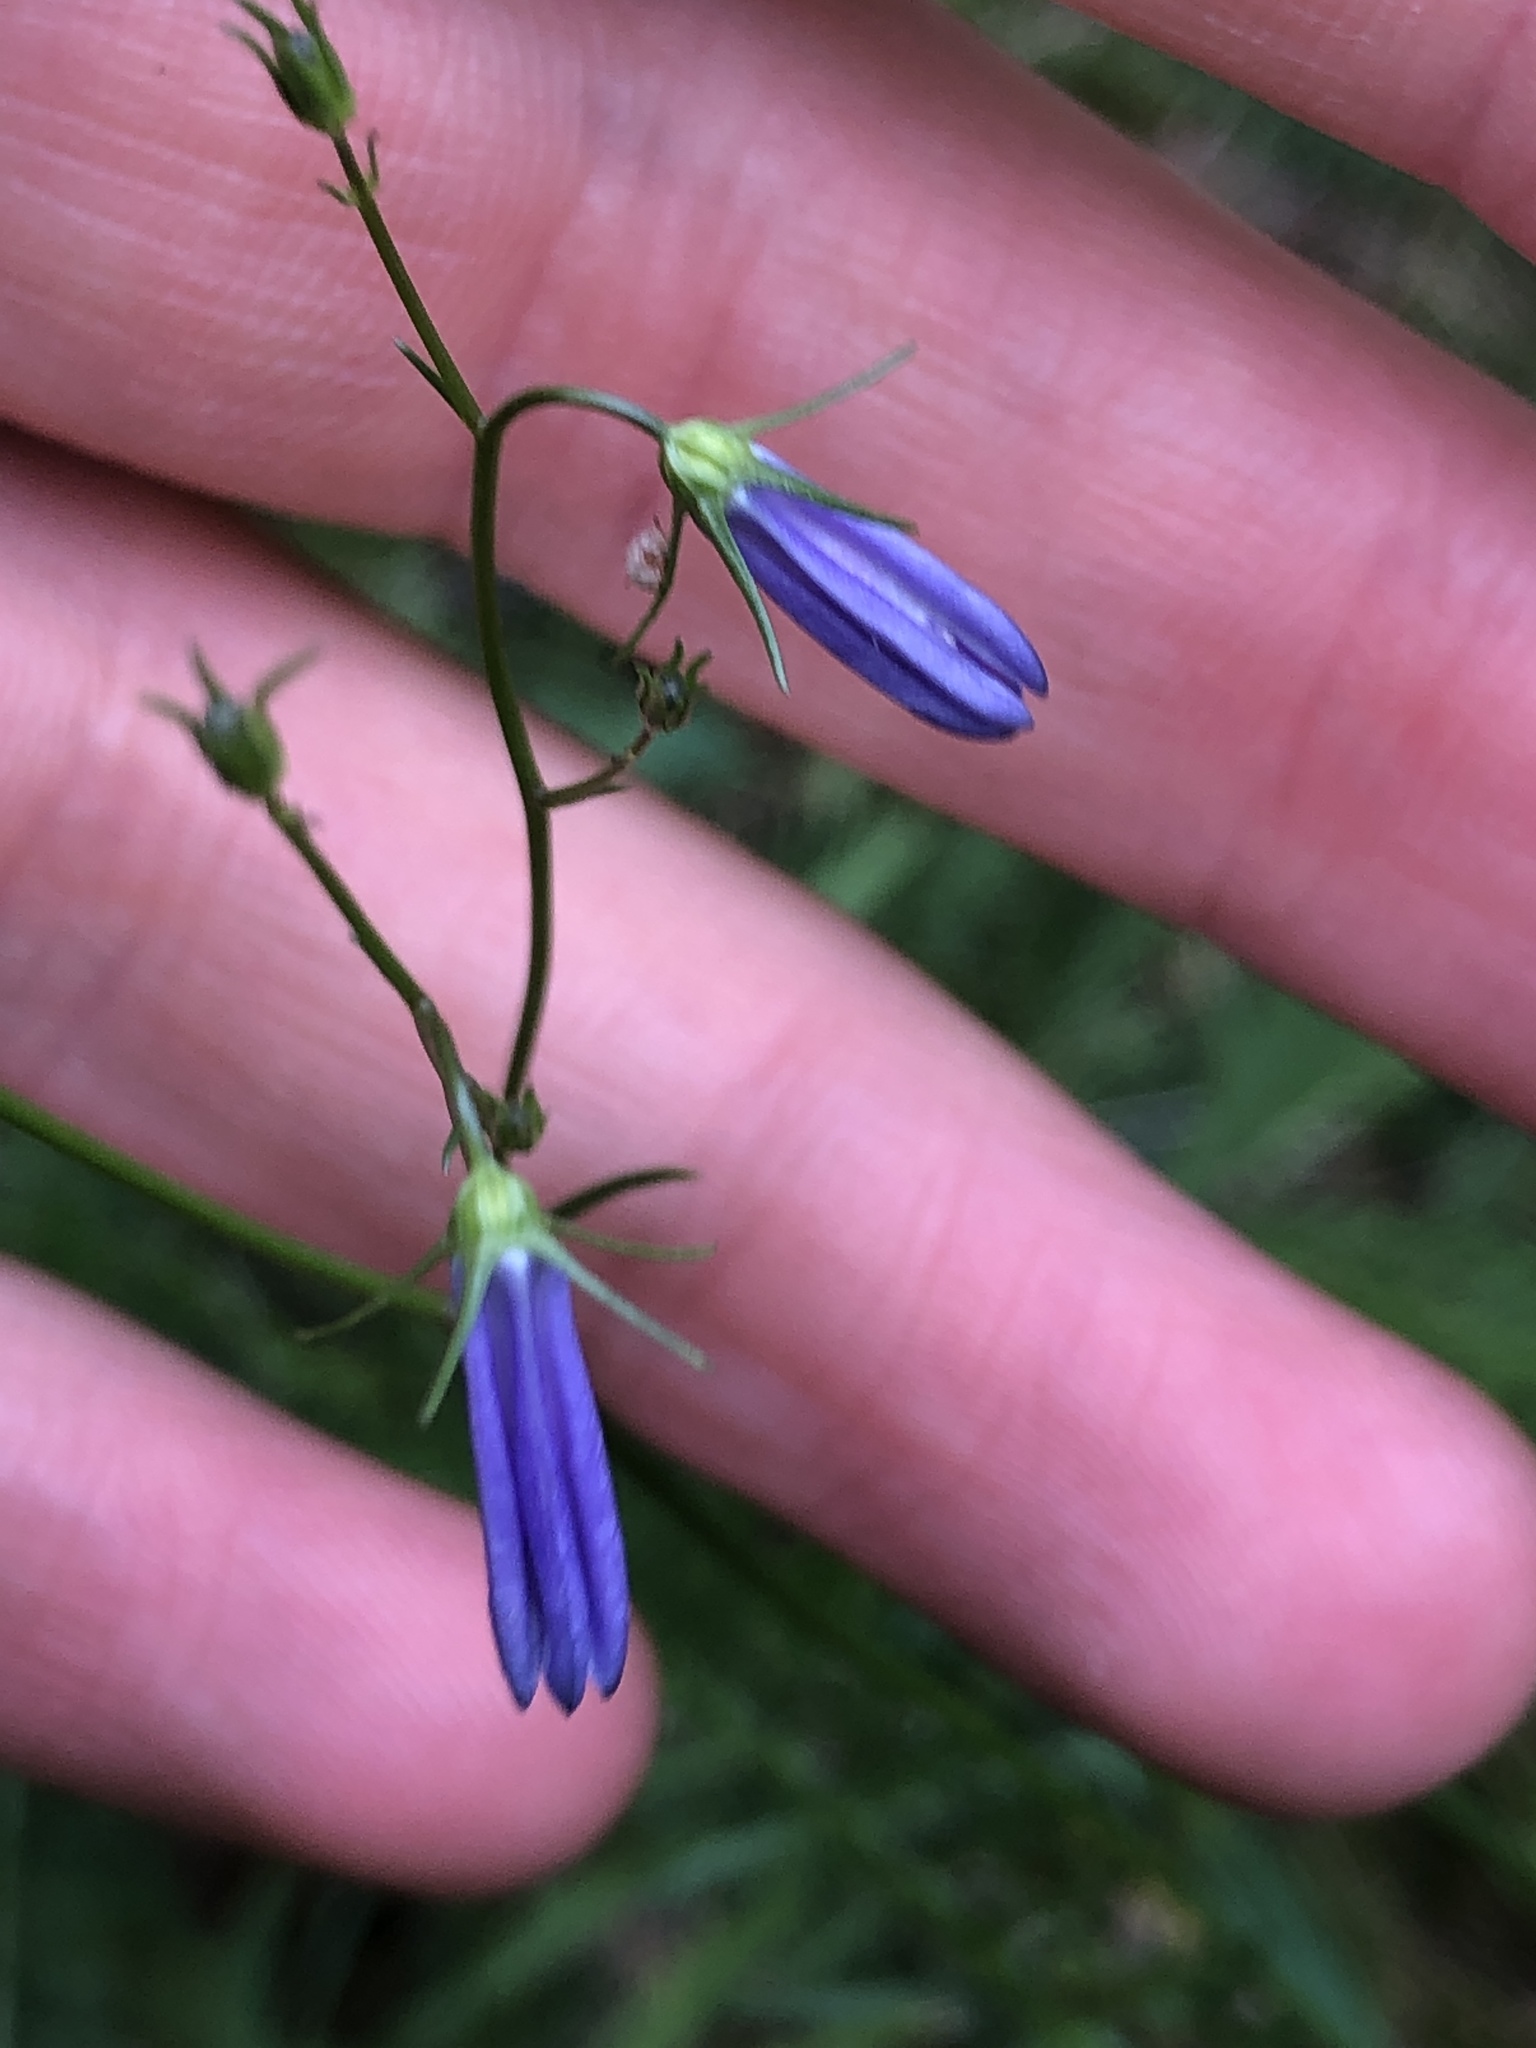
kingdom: Plantae
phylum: Tracheophyta
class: Magnoliopsida
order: Asterales
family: Campanulaceae
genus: Campanula
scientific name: Campanula rotundifolia
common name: Harebell
